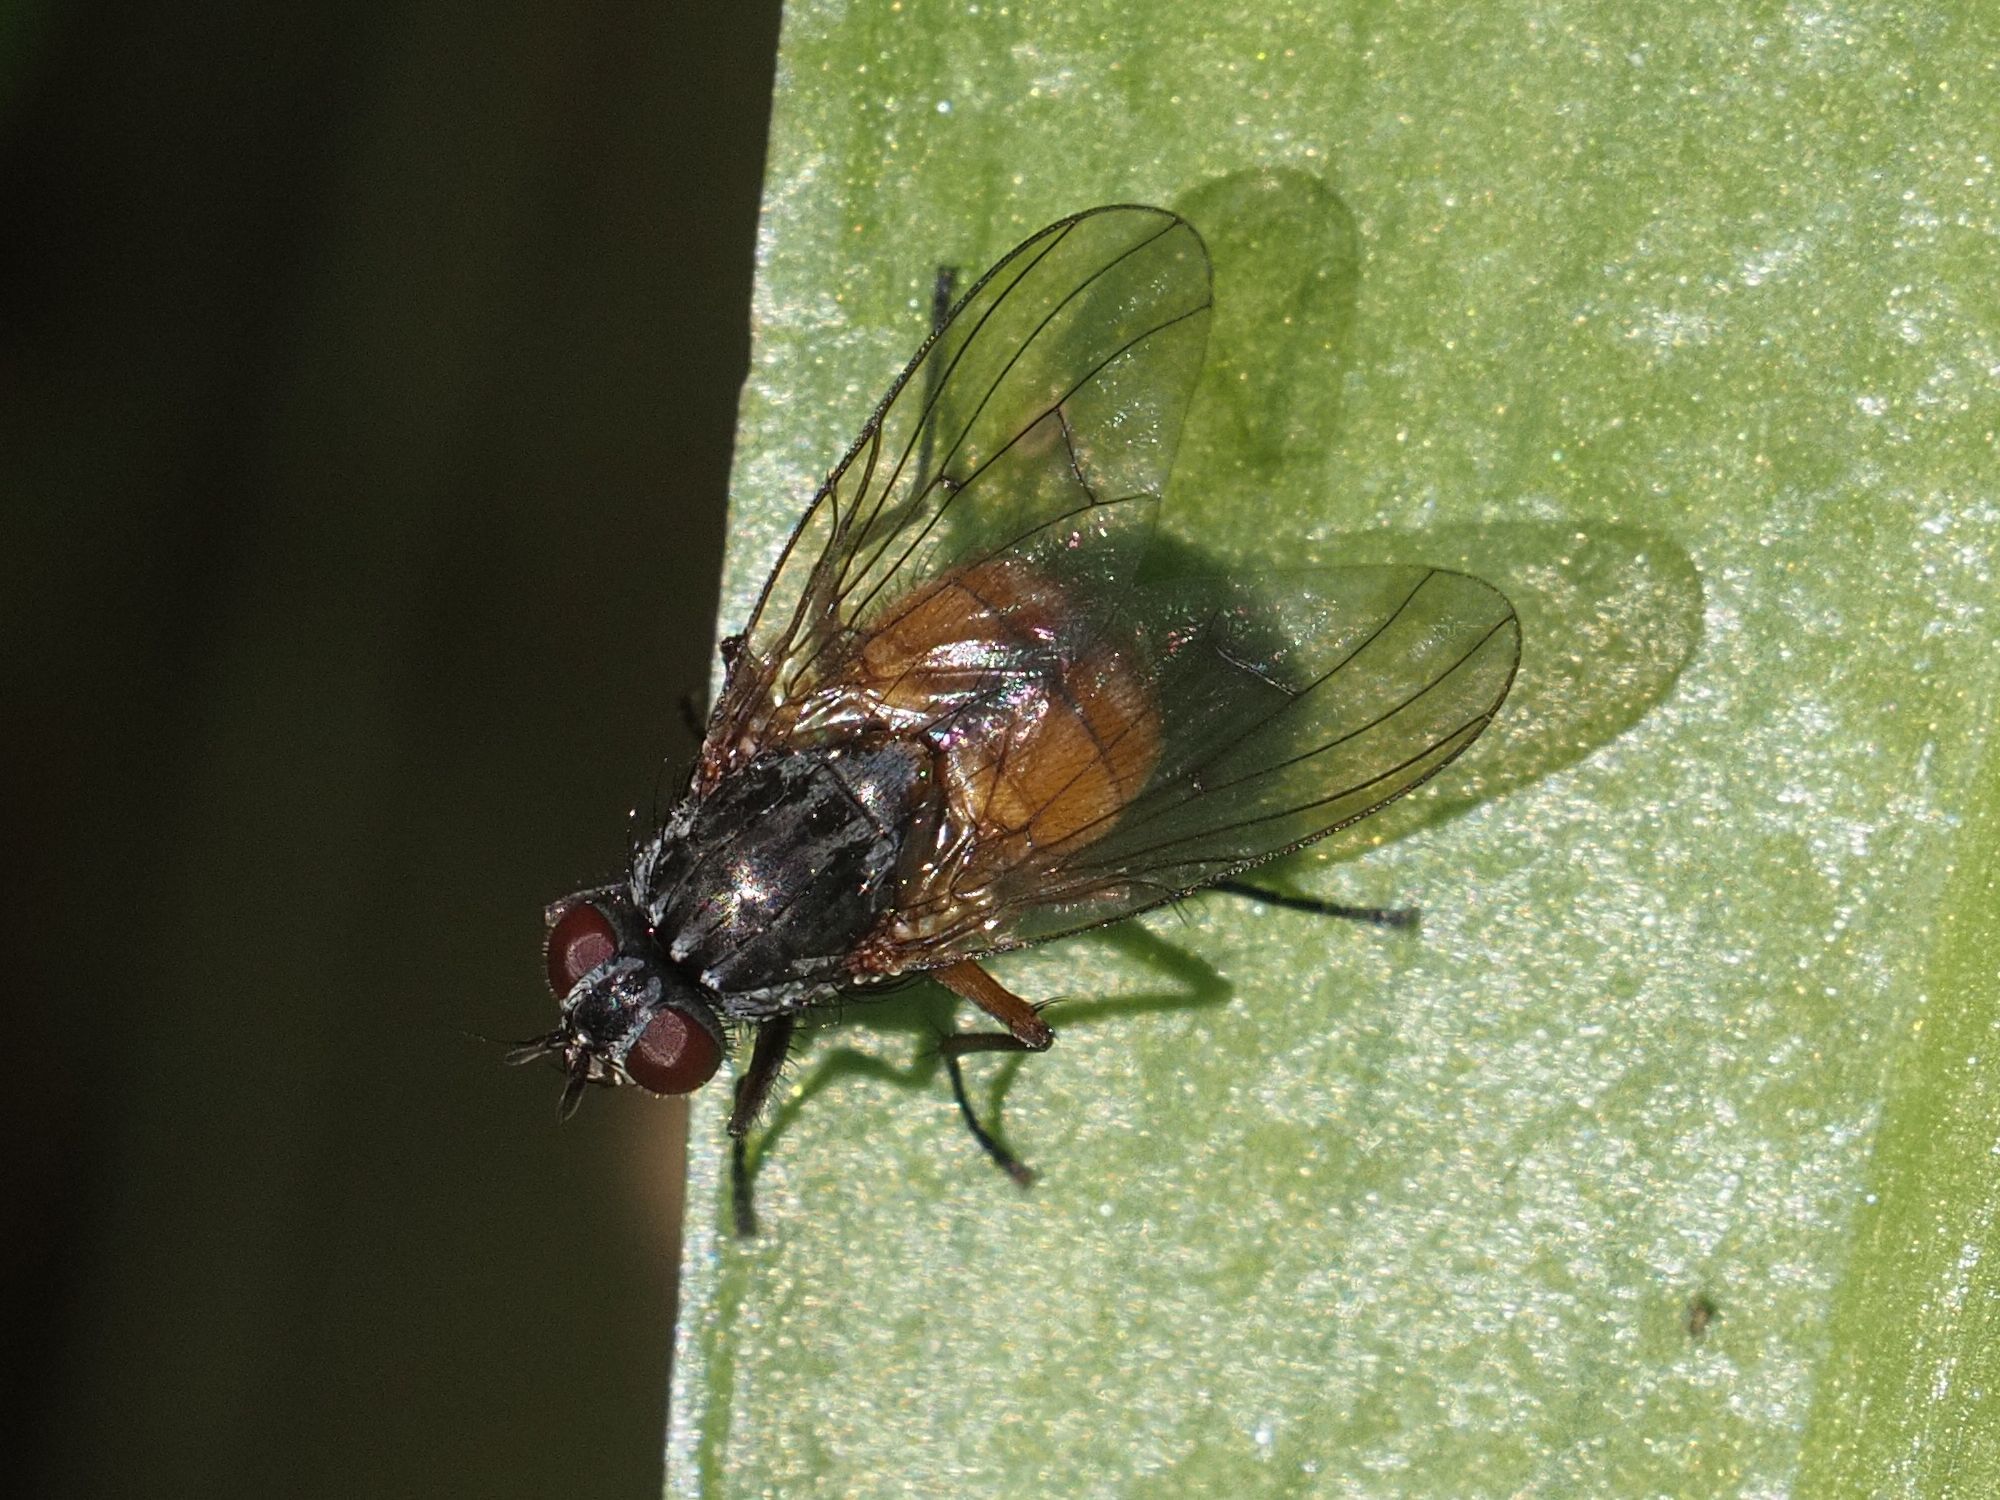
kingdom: Animalia
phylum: Arthropoda
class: Insecta
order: Diptera
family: Muscidae
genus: Phaonia
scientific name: Phaonia subventa
